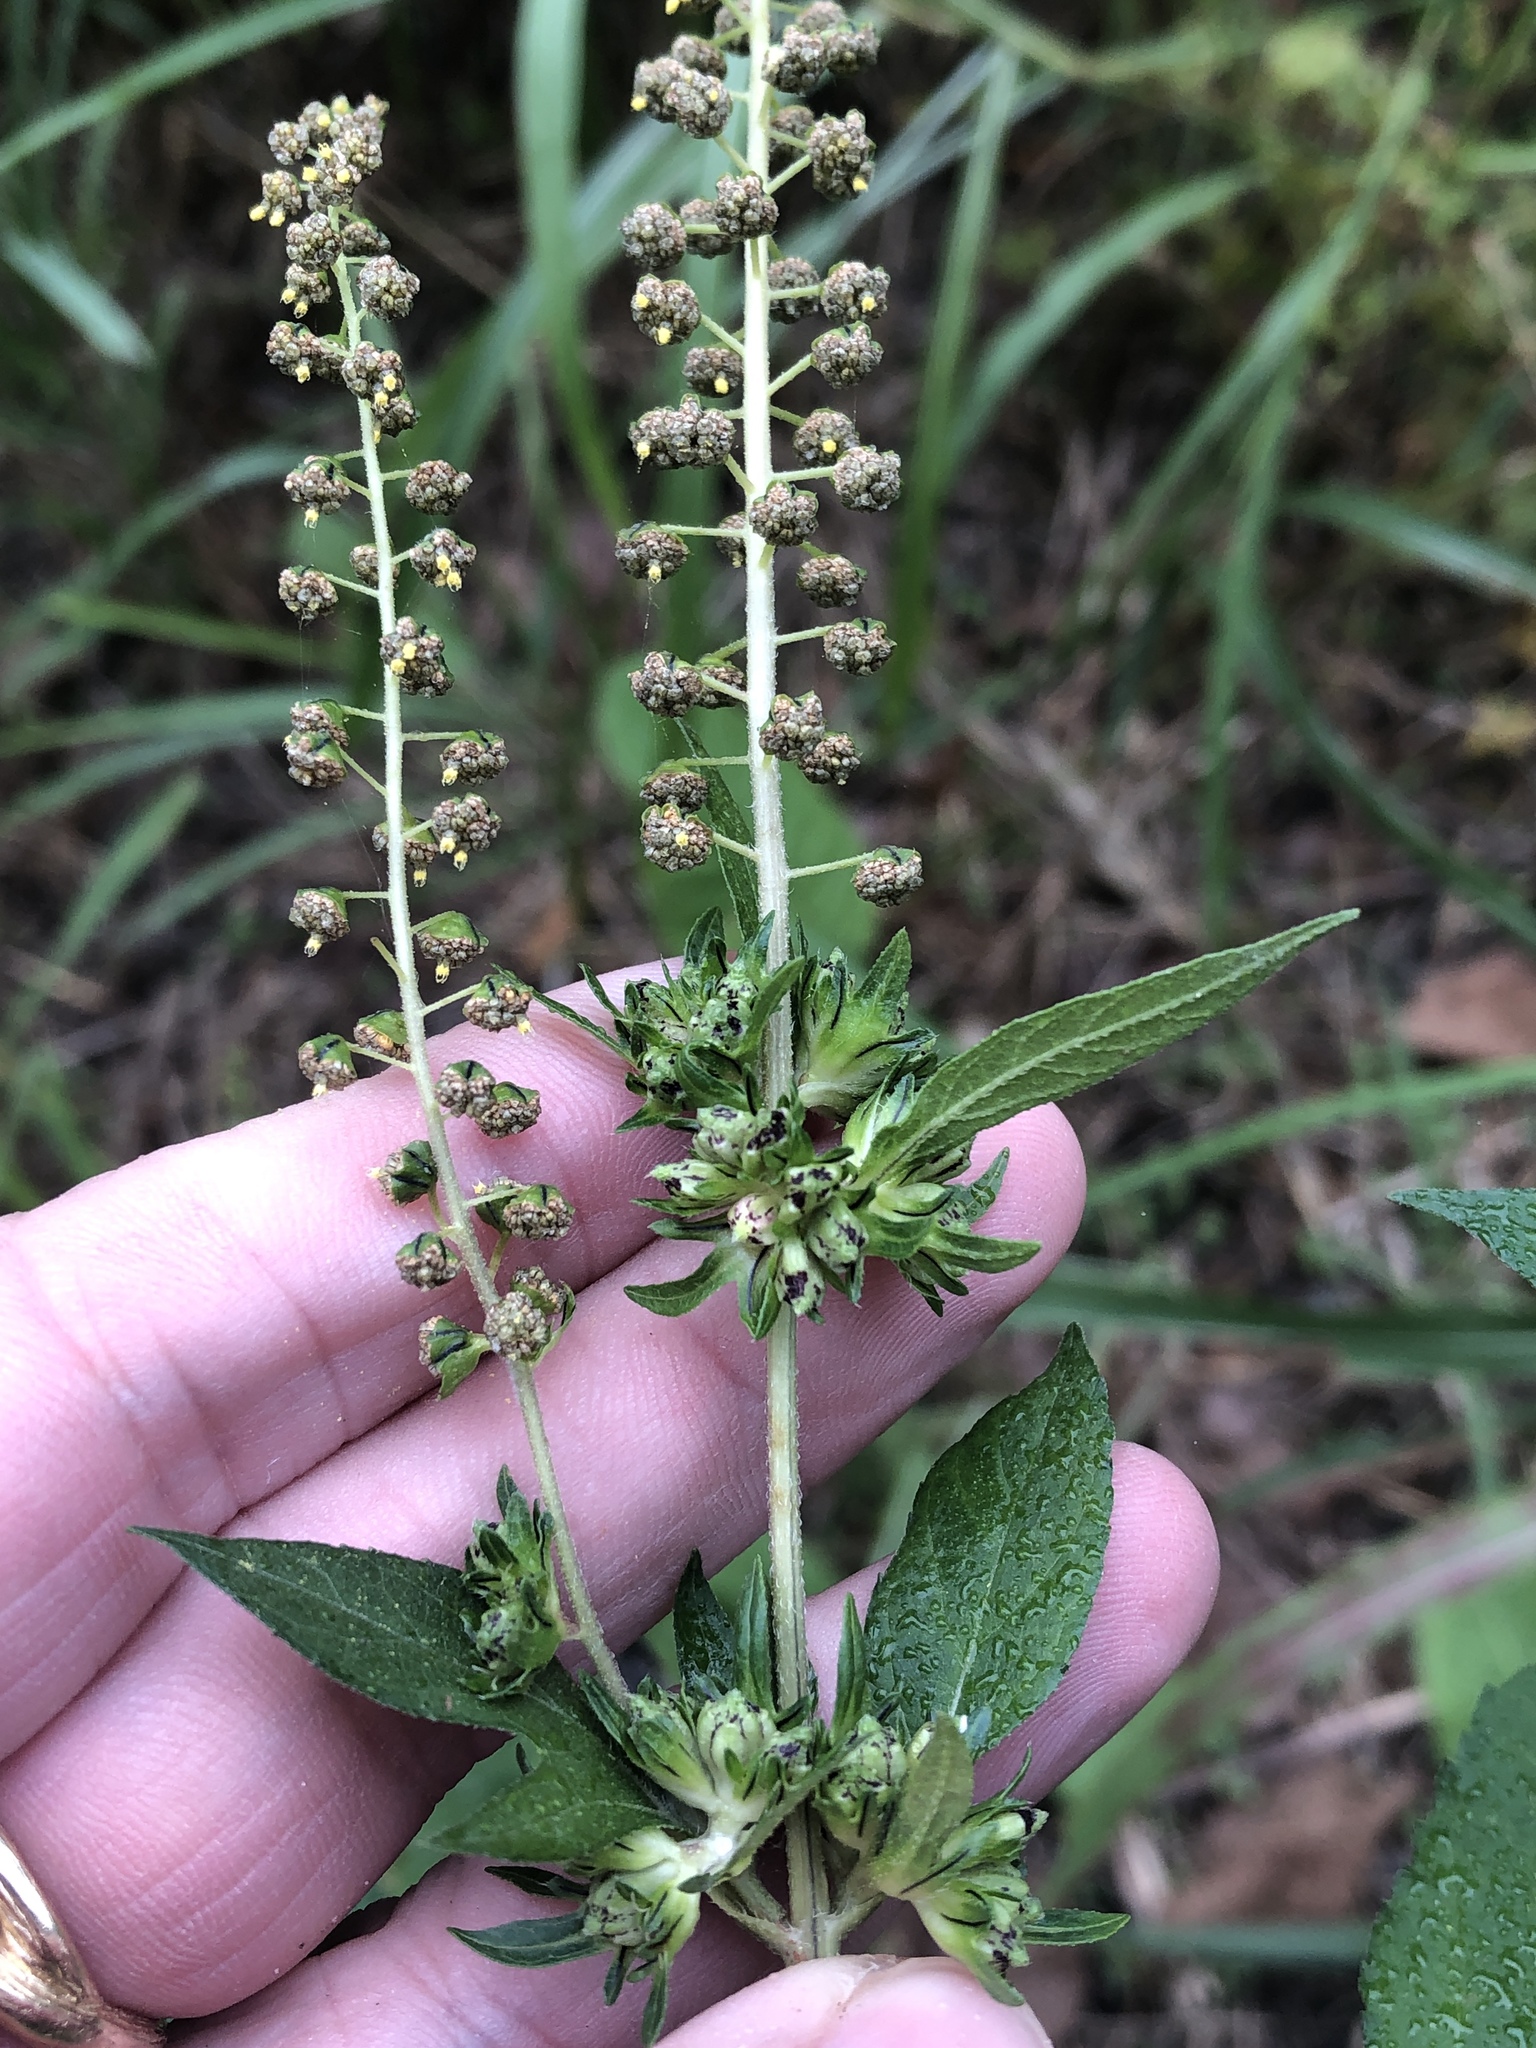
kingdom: Plantae
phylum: Tracheophyta
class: Magnoliopsida
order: Asterales
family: Asteraceae
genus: Ambrosia
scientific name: Ambrosia trifida
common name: Giant ragweed
